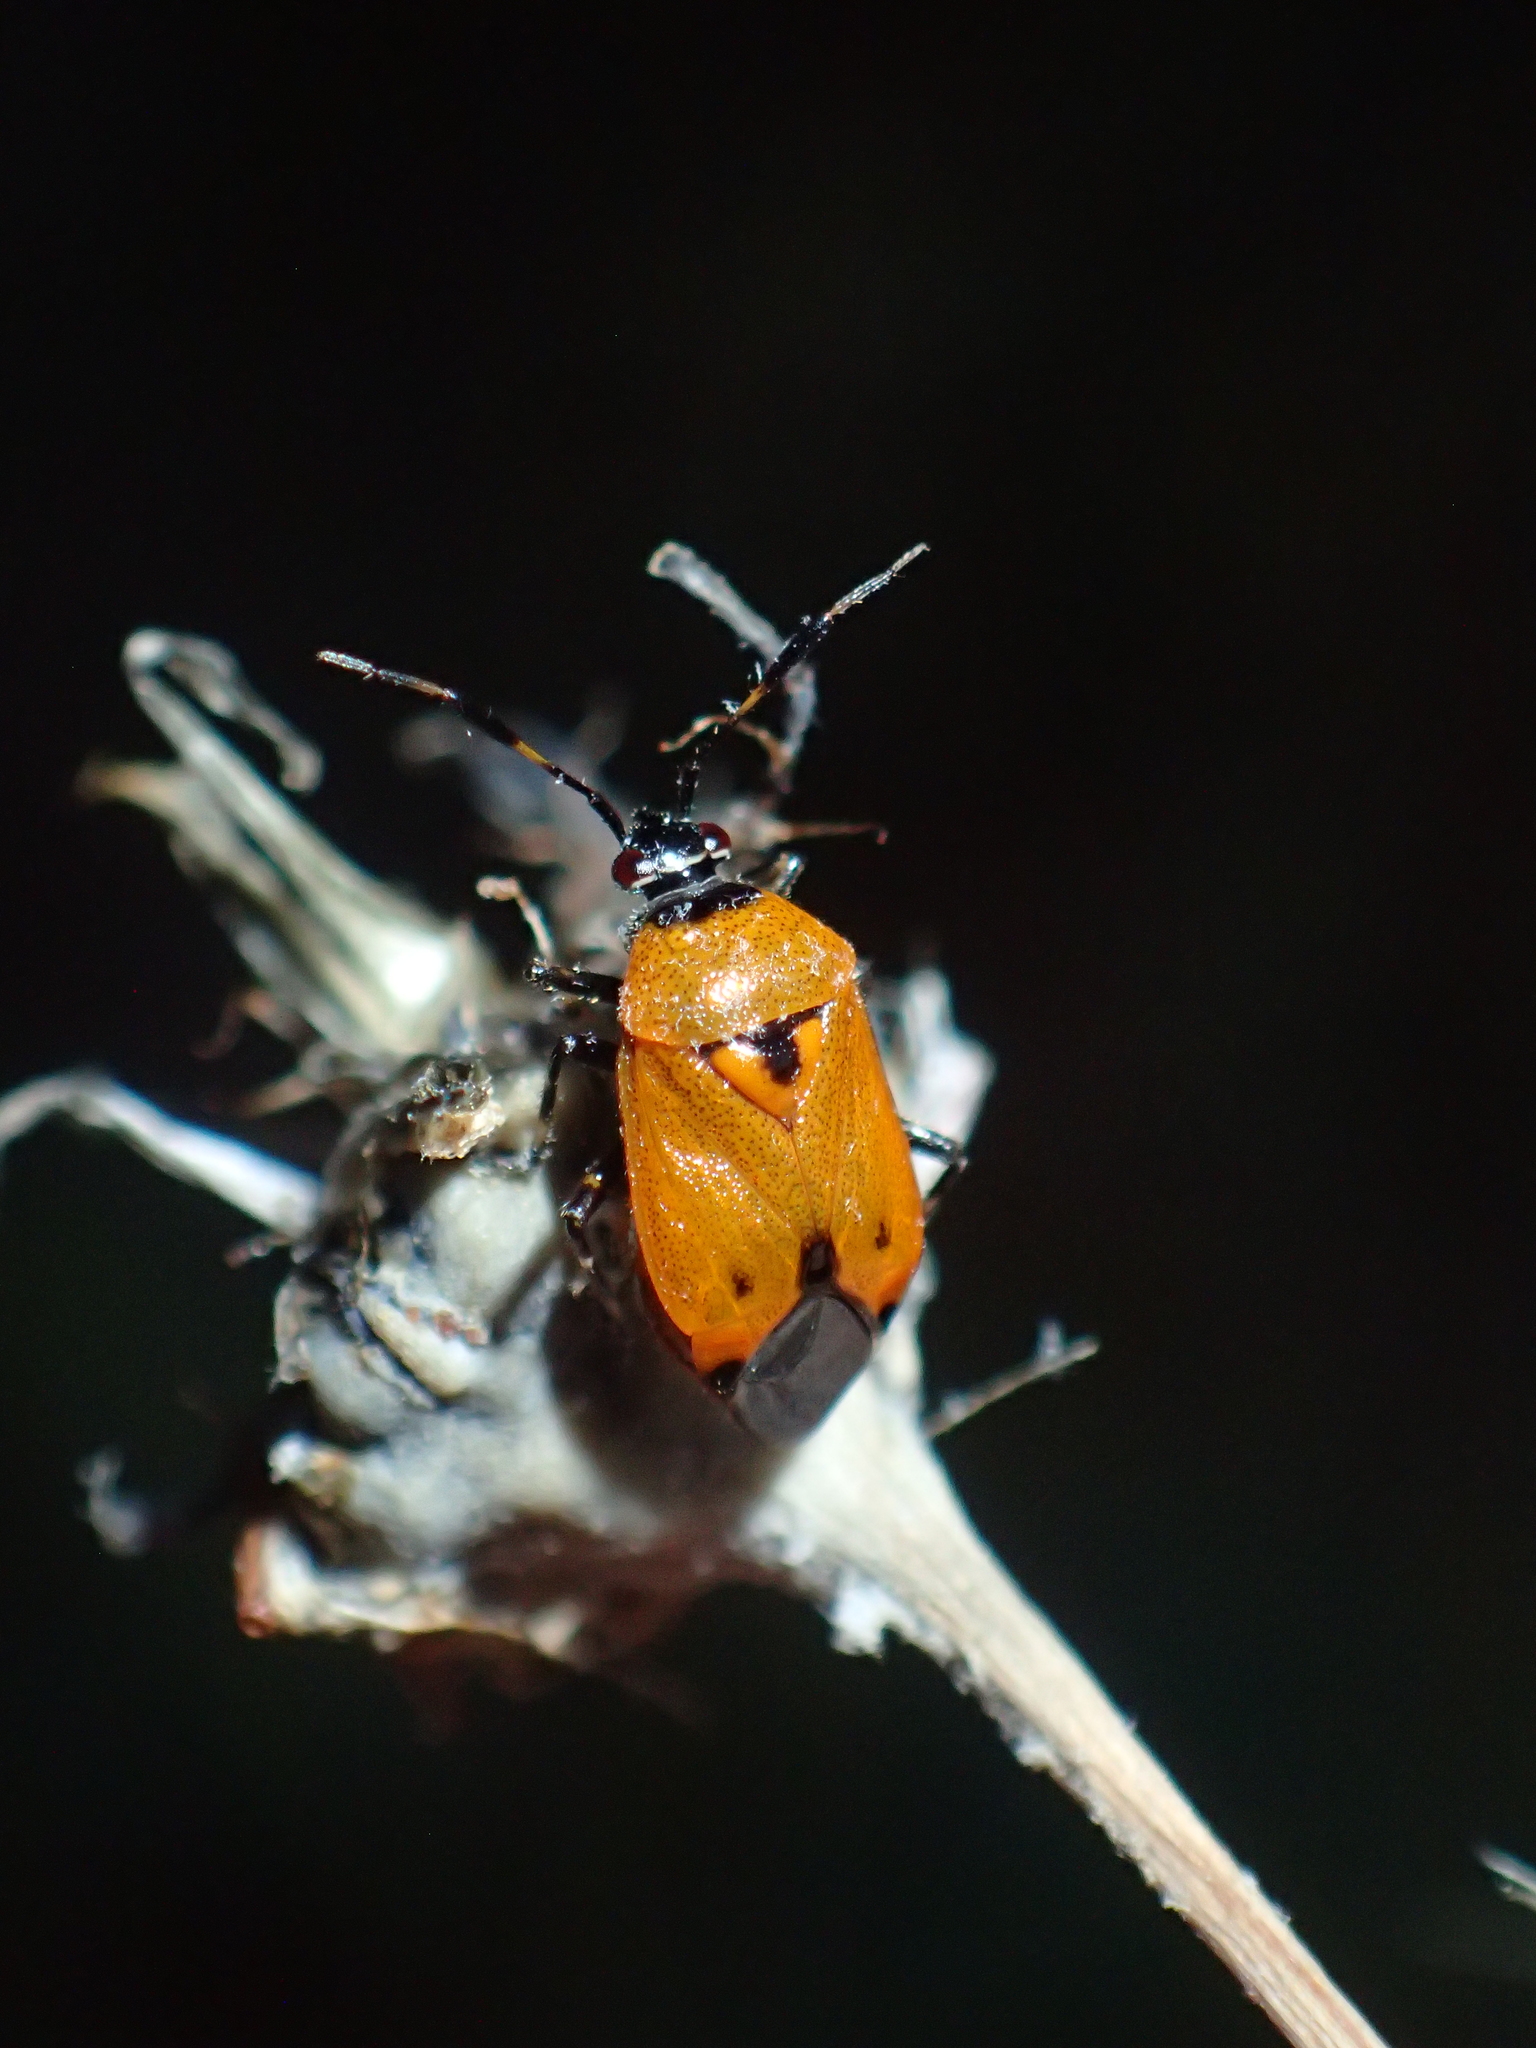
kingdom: Animalia
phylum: Arthropoda
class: Insecta
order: Hemiptera
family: Miridae
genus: Deraeocoris
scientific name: Deraeocoris punctum
